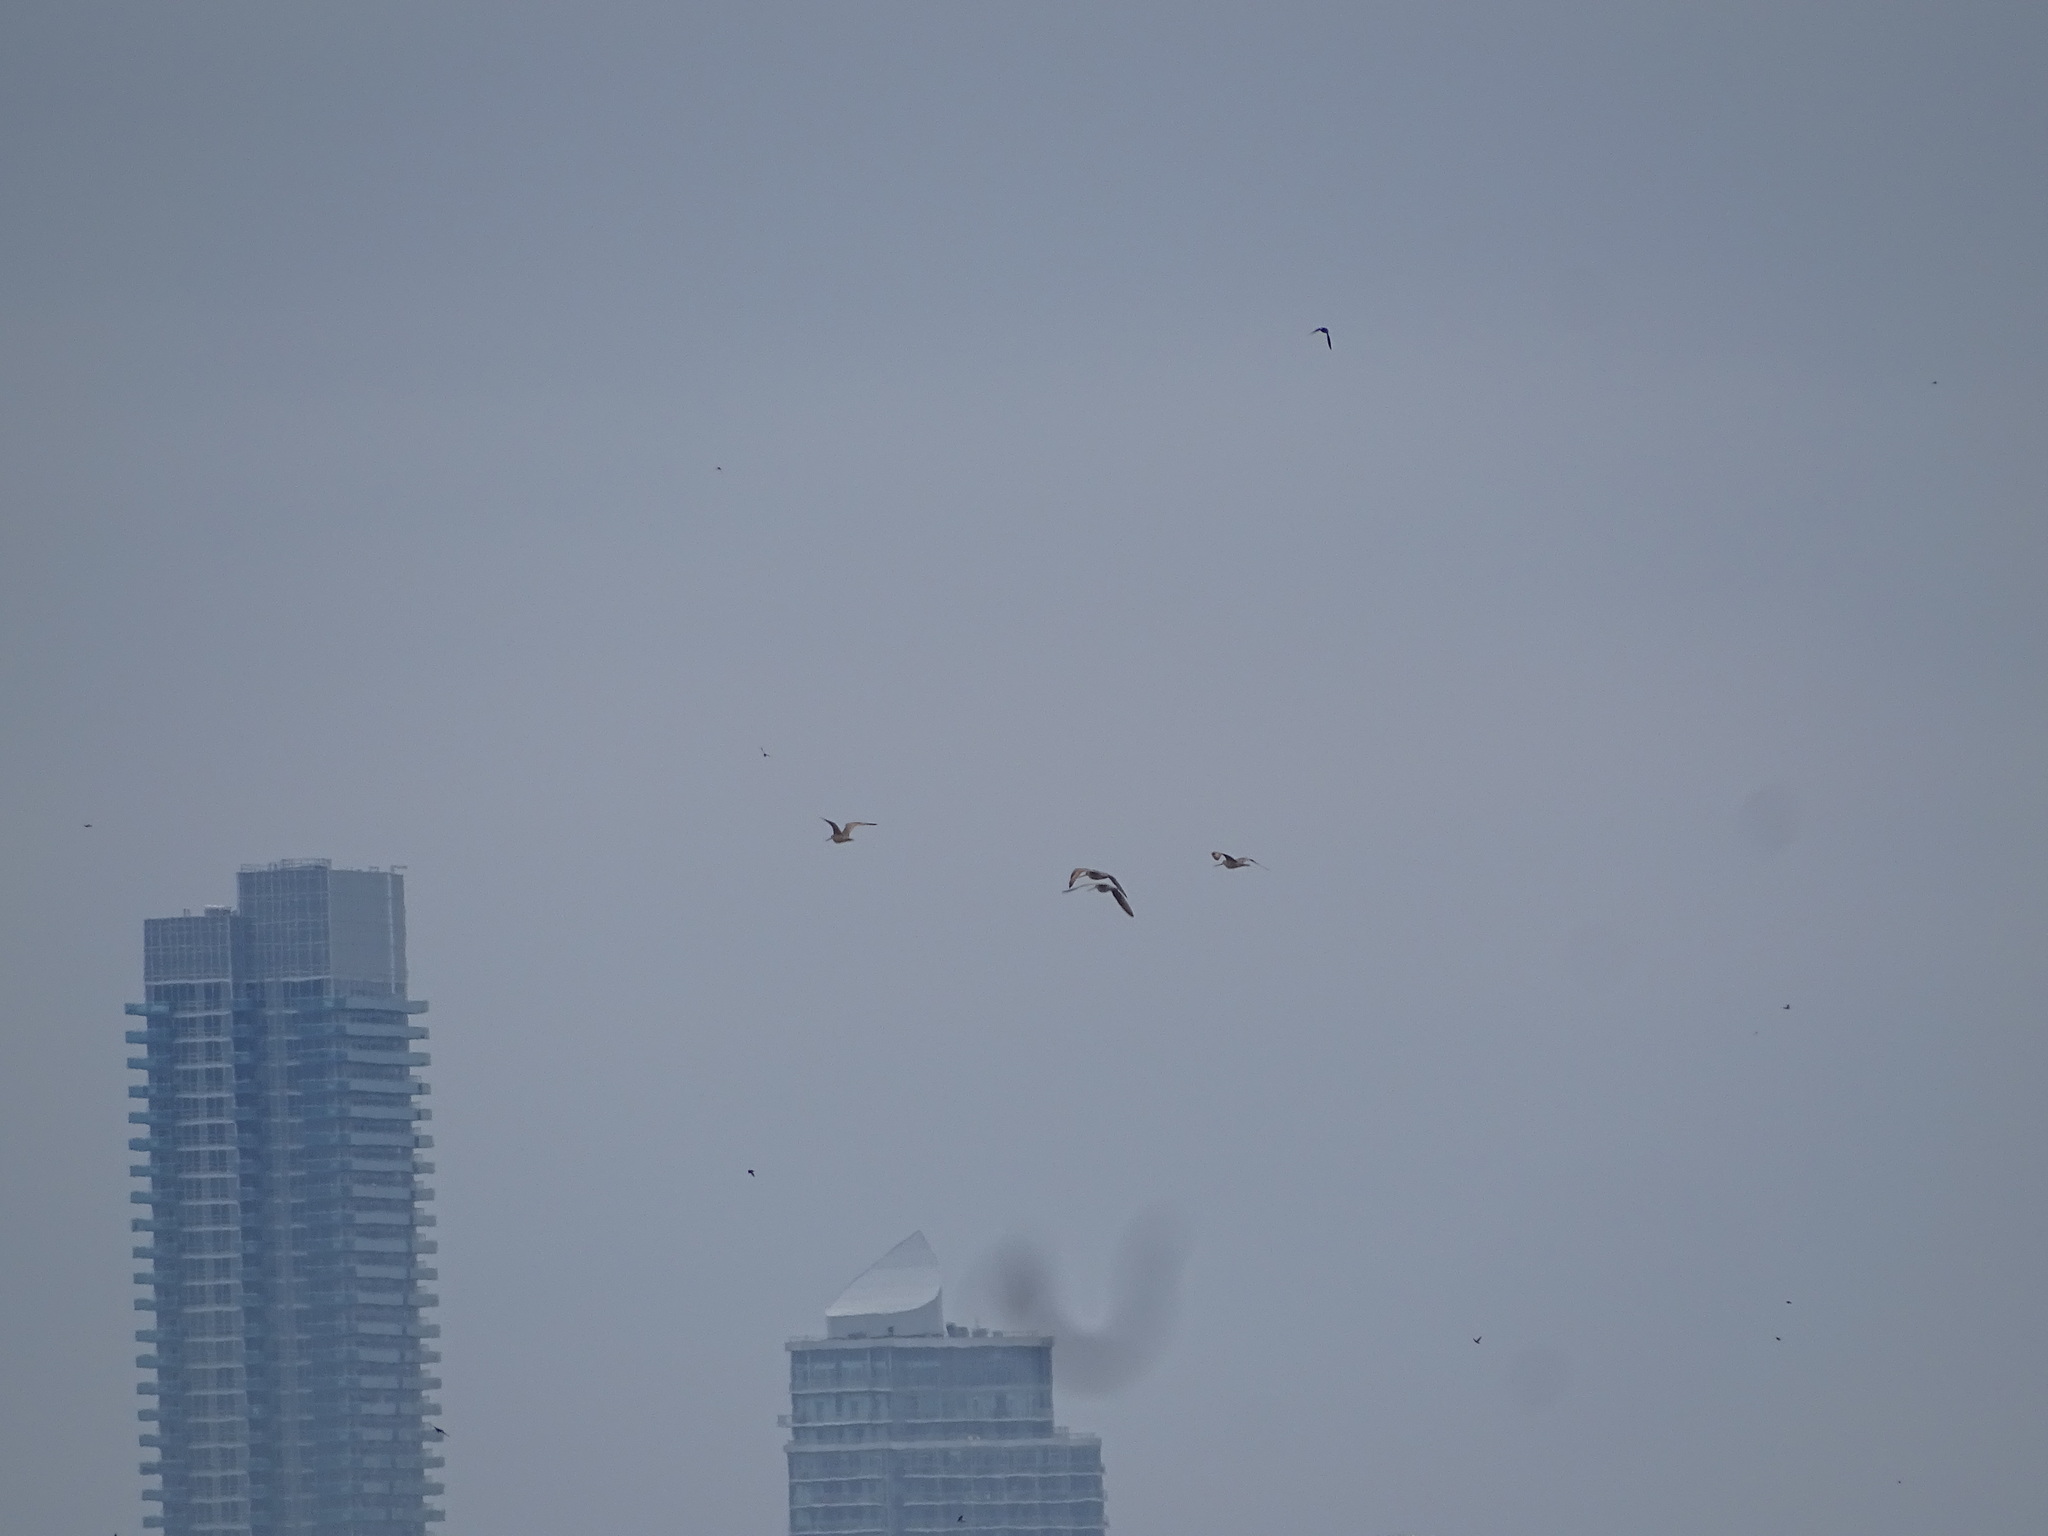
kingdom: Animalia
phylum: Chordata
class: Aves
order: Charadriiformes
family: Scolopacidae
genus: Limosa
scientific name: Limosa fedoa
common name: Marbled godwit
